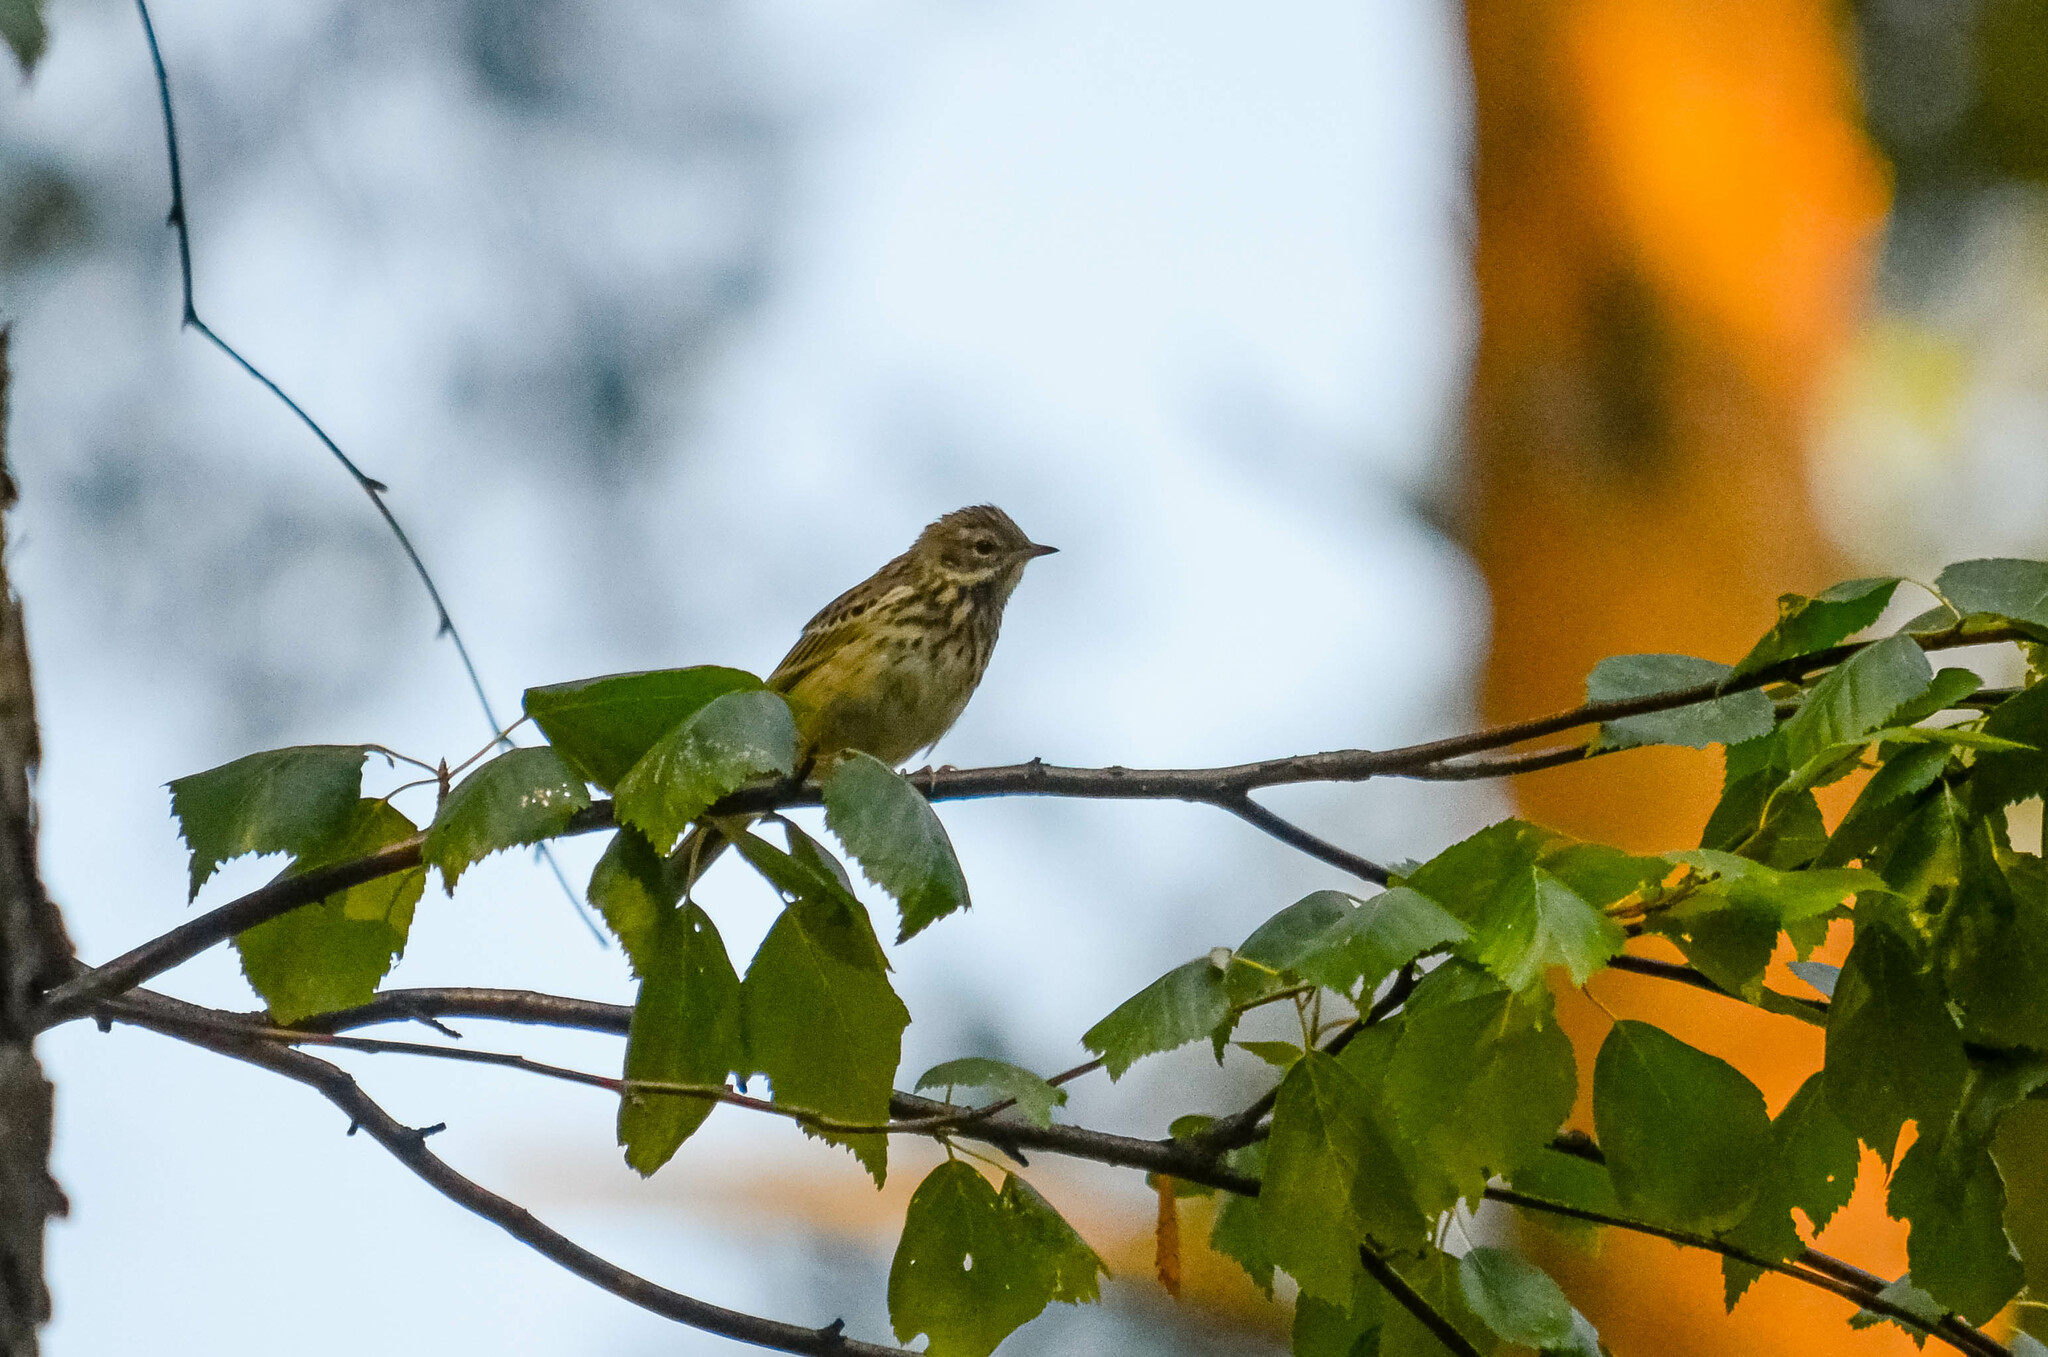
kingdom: Animalia
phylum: Chordata
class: Aves
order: Passeriformes
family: Motacillidae
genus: Anthus
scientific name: Anthus trivialis
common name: Tree pipit
